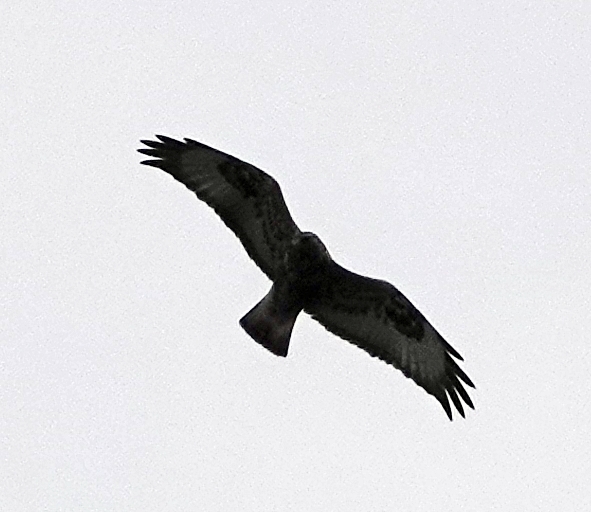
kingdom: Animalia
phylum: Chordata
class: Aves
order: Accipitriformes
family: Accipitridae
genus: Buteo
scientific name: Buteo lagopus
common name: Rough-legged buzzard
